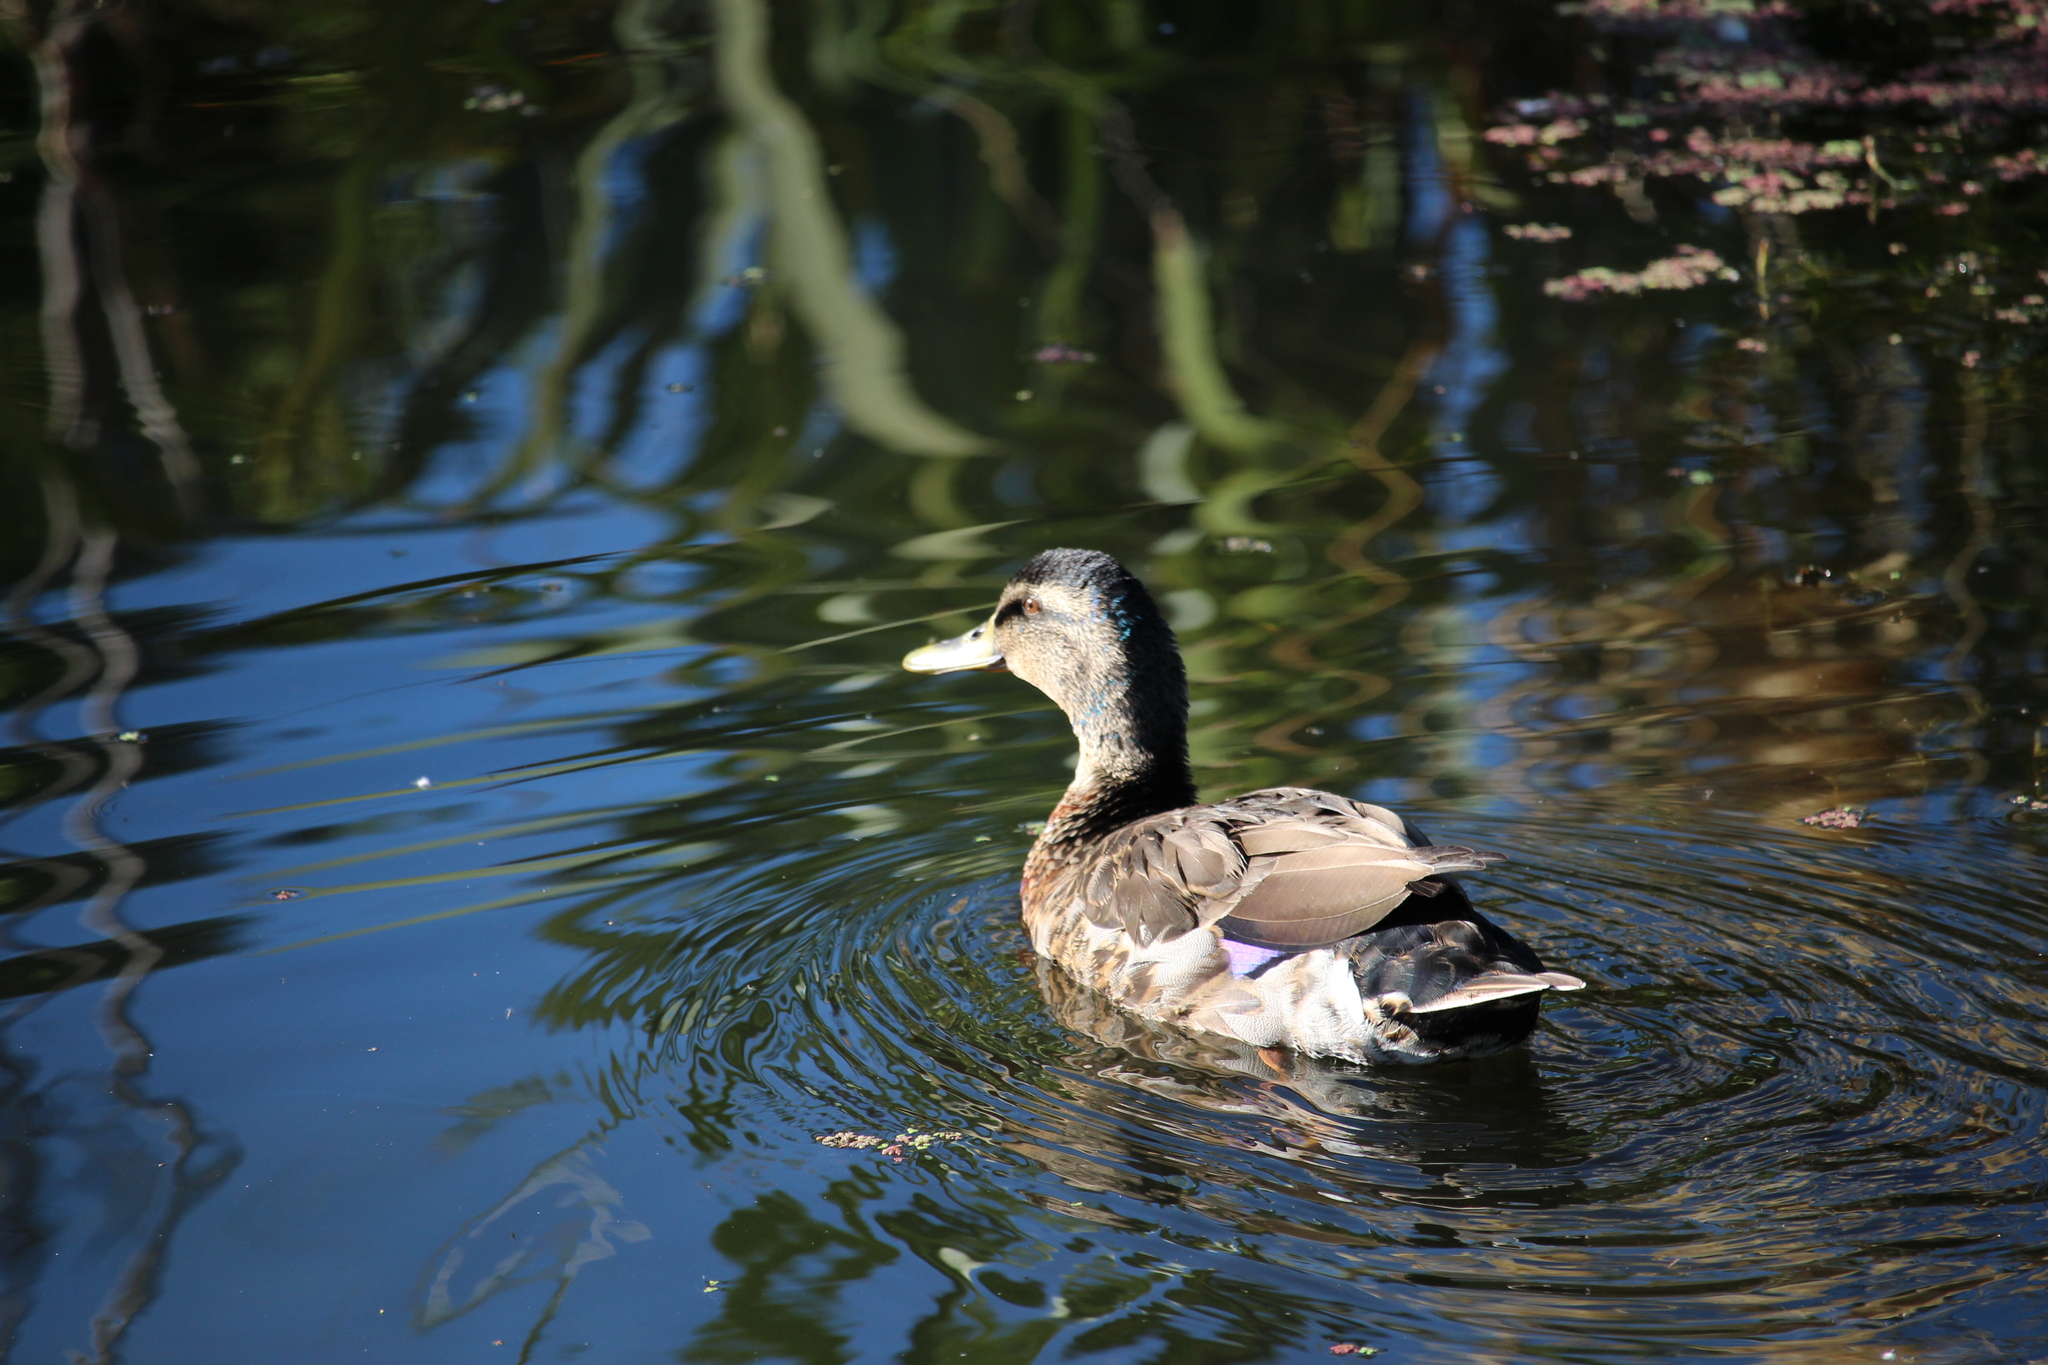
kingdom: Animalia
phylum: Chordata
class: Aves
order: Anseriformes
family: Anatidae
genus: Anas
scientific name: Anas
